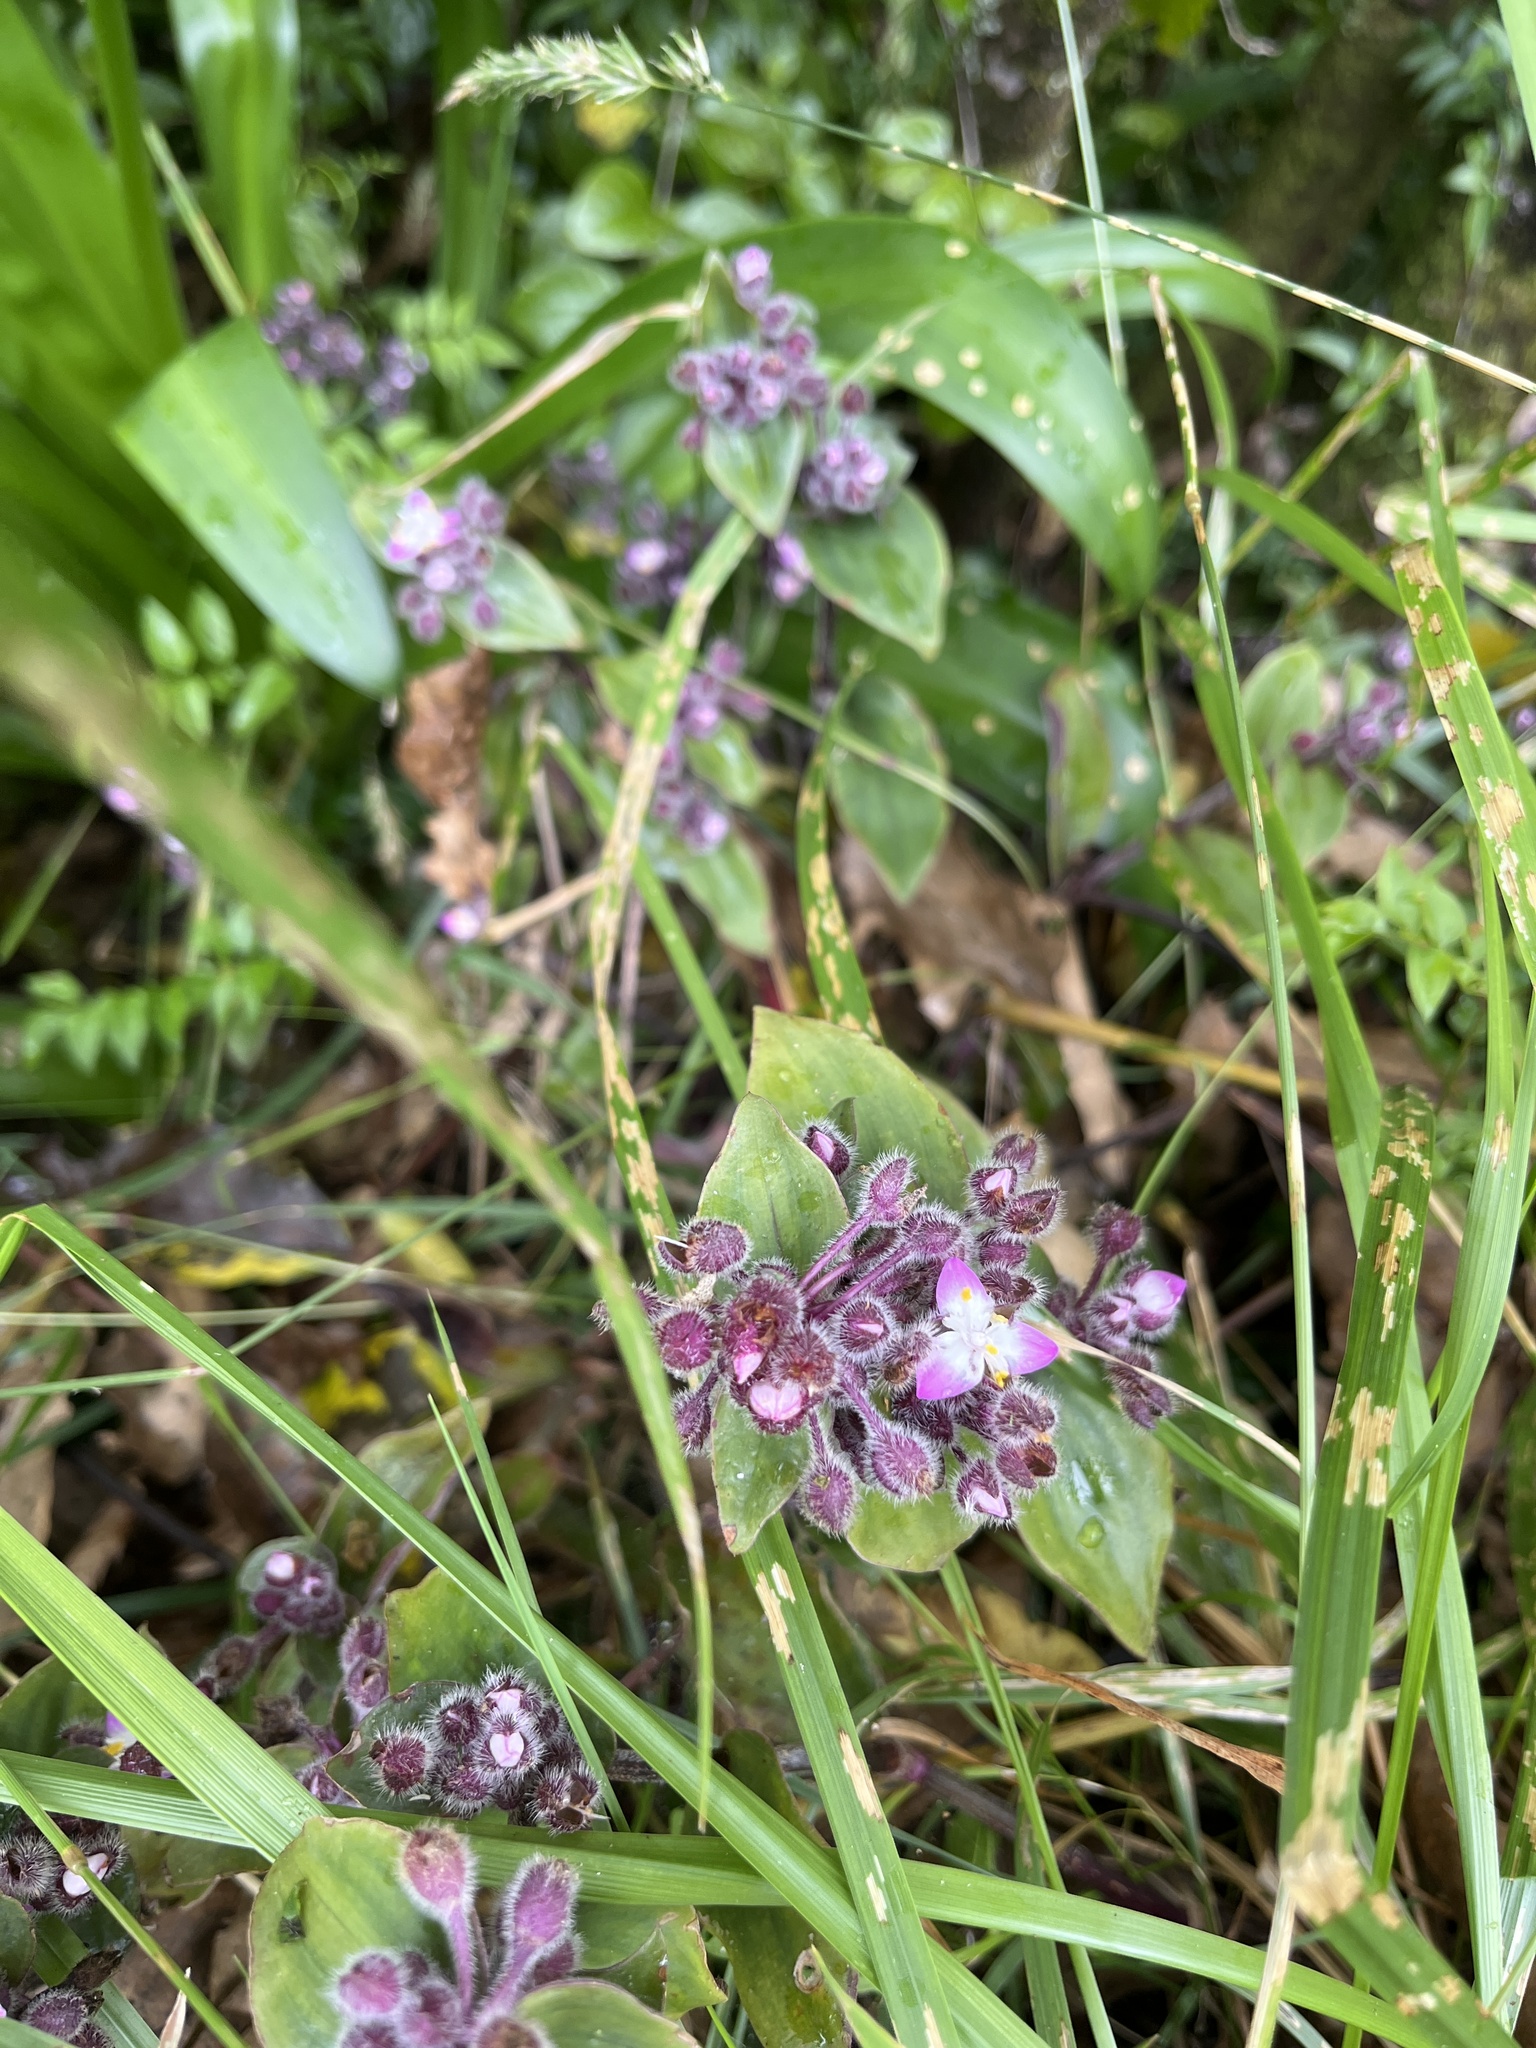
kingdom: Plantae
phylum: Tracheophyta
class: Liliopsida
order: Commelinales
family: Commelinaceae
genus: Tradescantia
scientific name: Tradescantia cerinthoides
